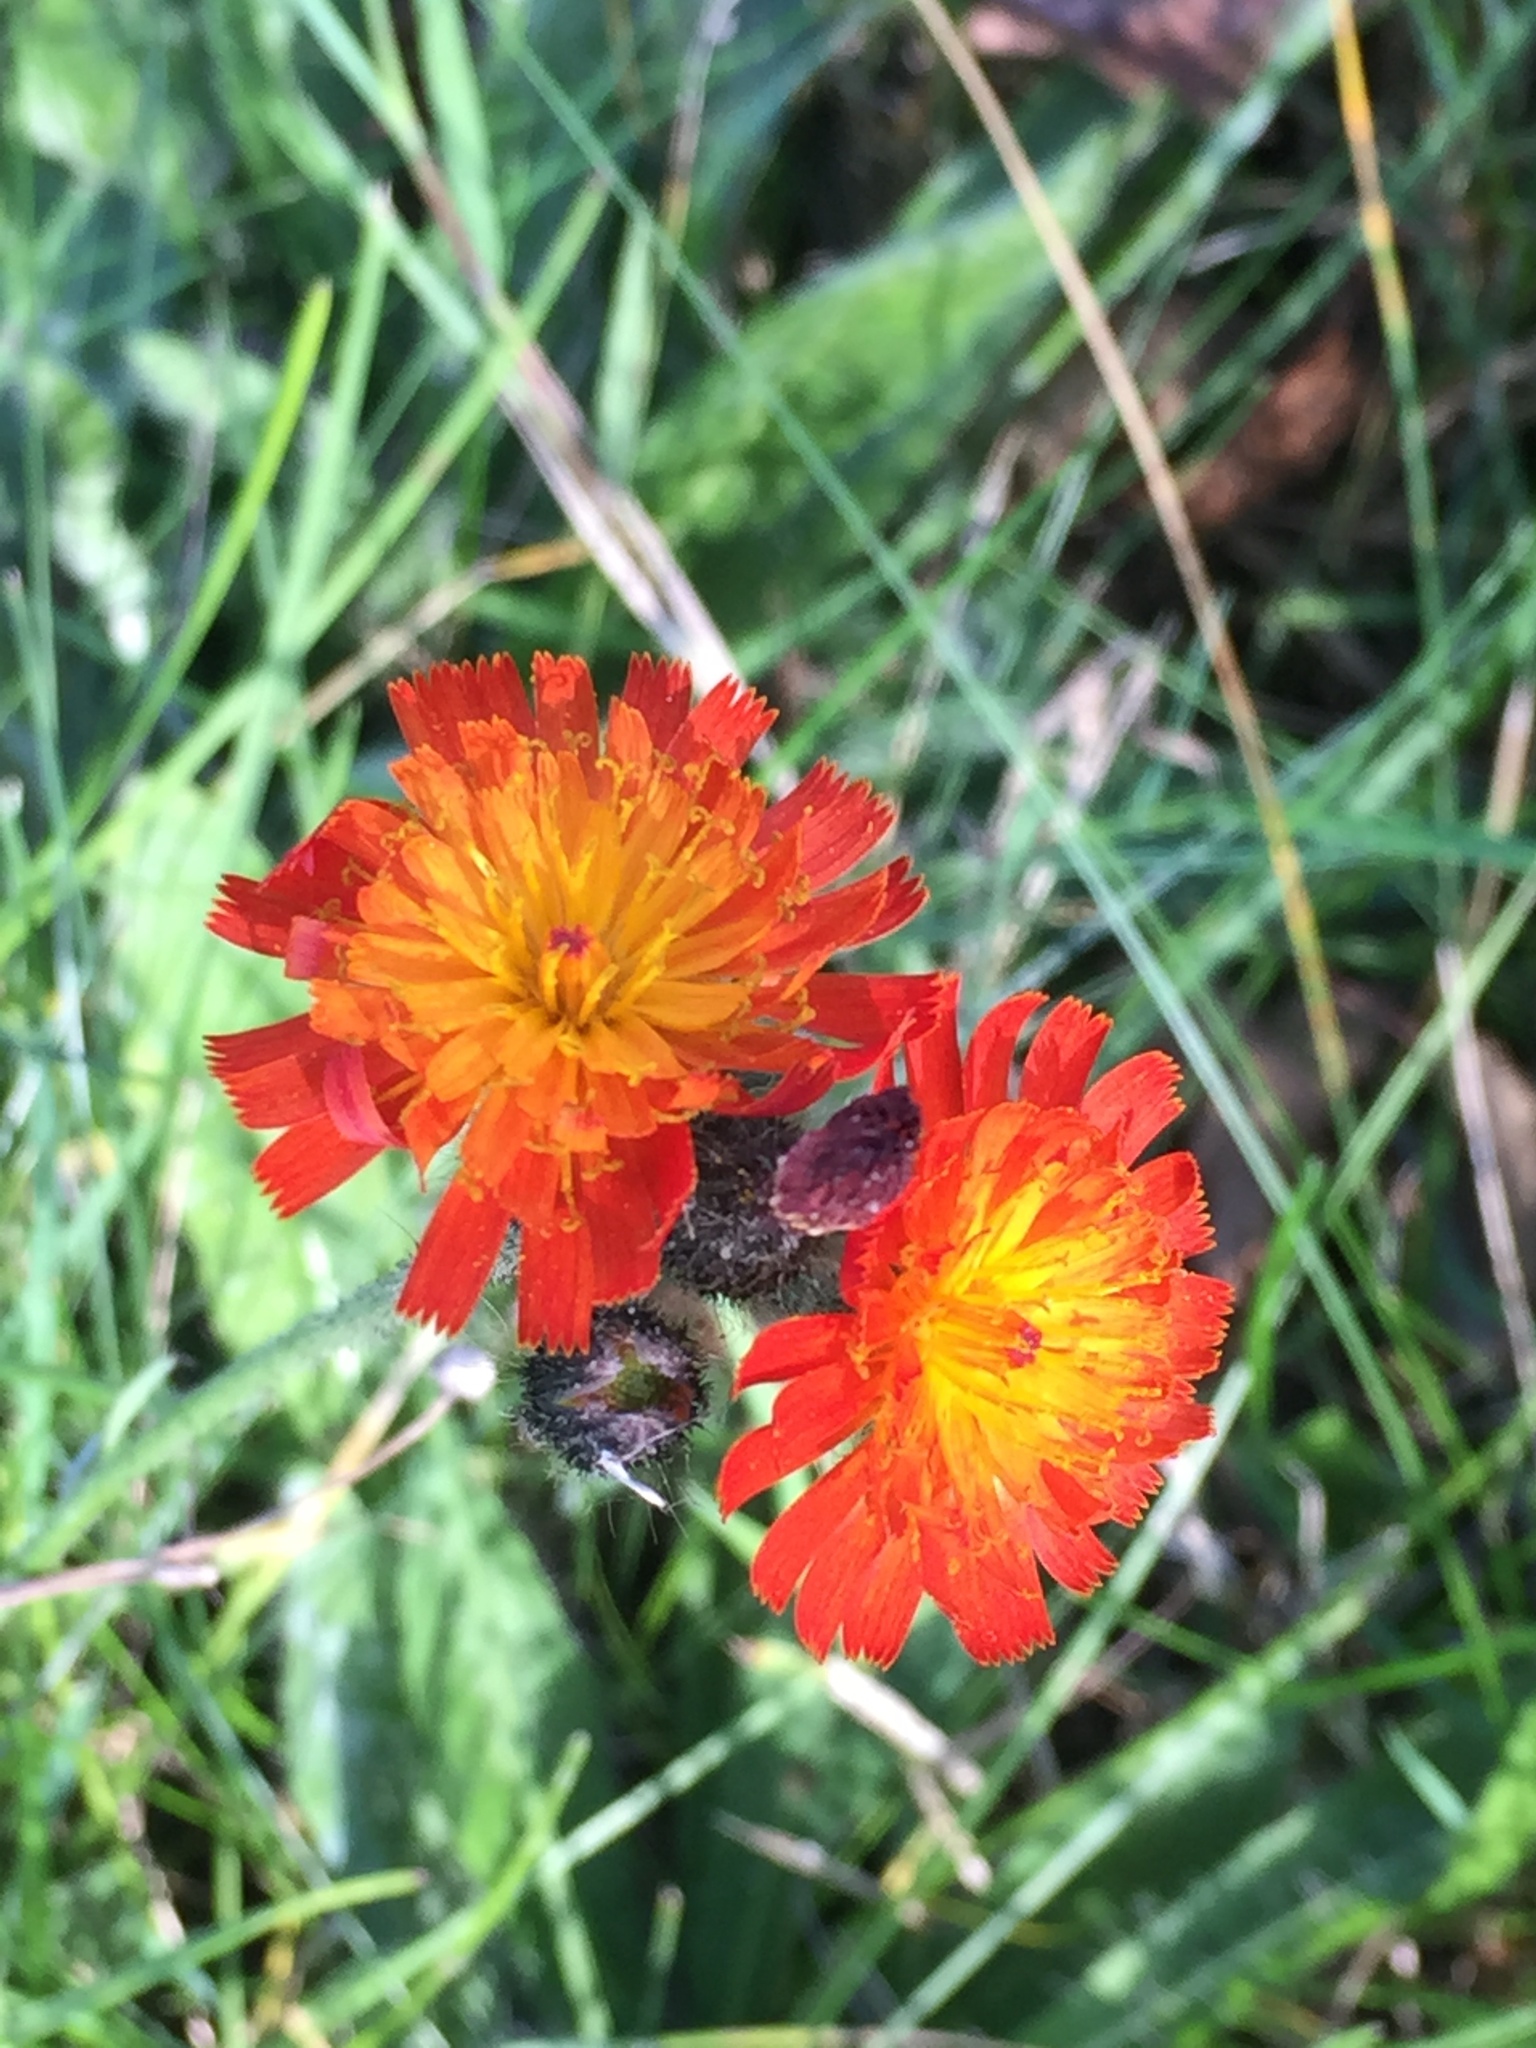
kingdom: Plantae
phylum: Tracheophyta
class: Magnoliopsida
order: Asterales
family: Asteraceae
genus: Pilosella
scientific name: Pilosella aurantiaca
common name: Fox-and-cubs
